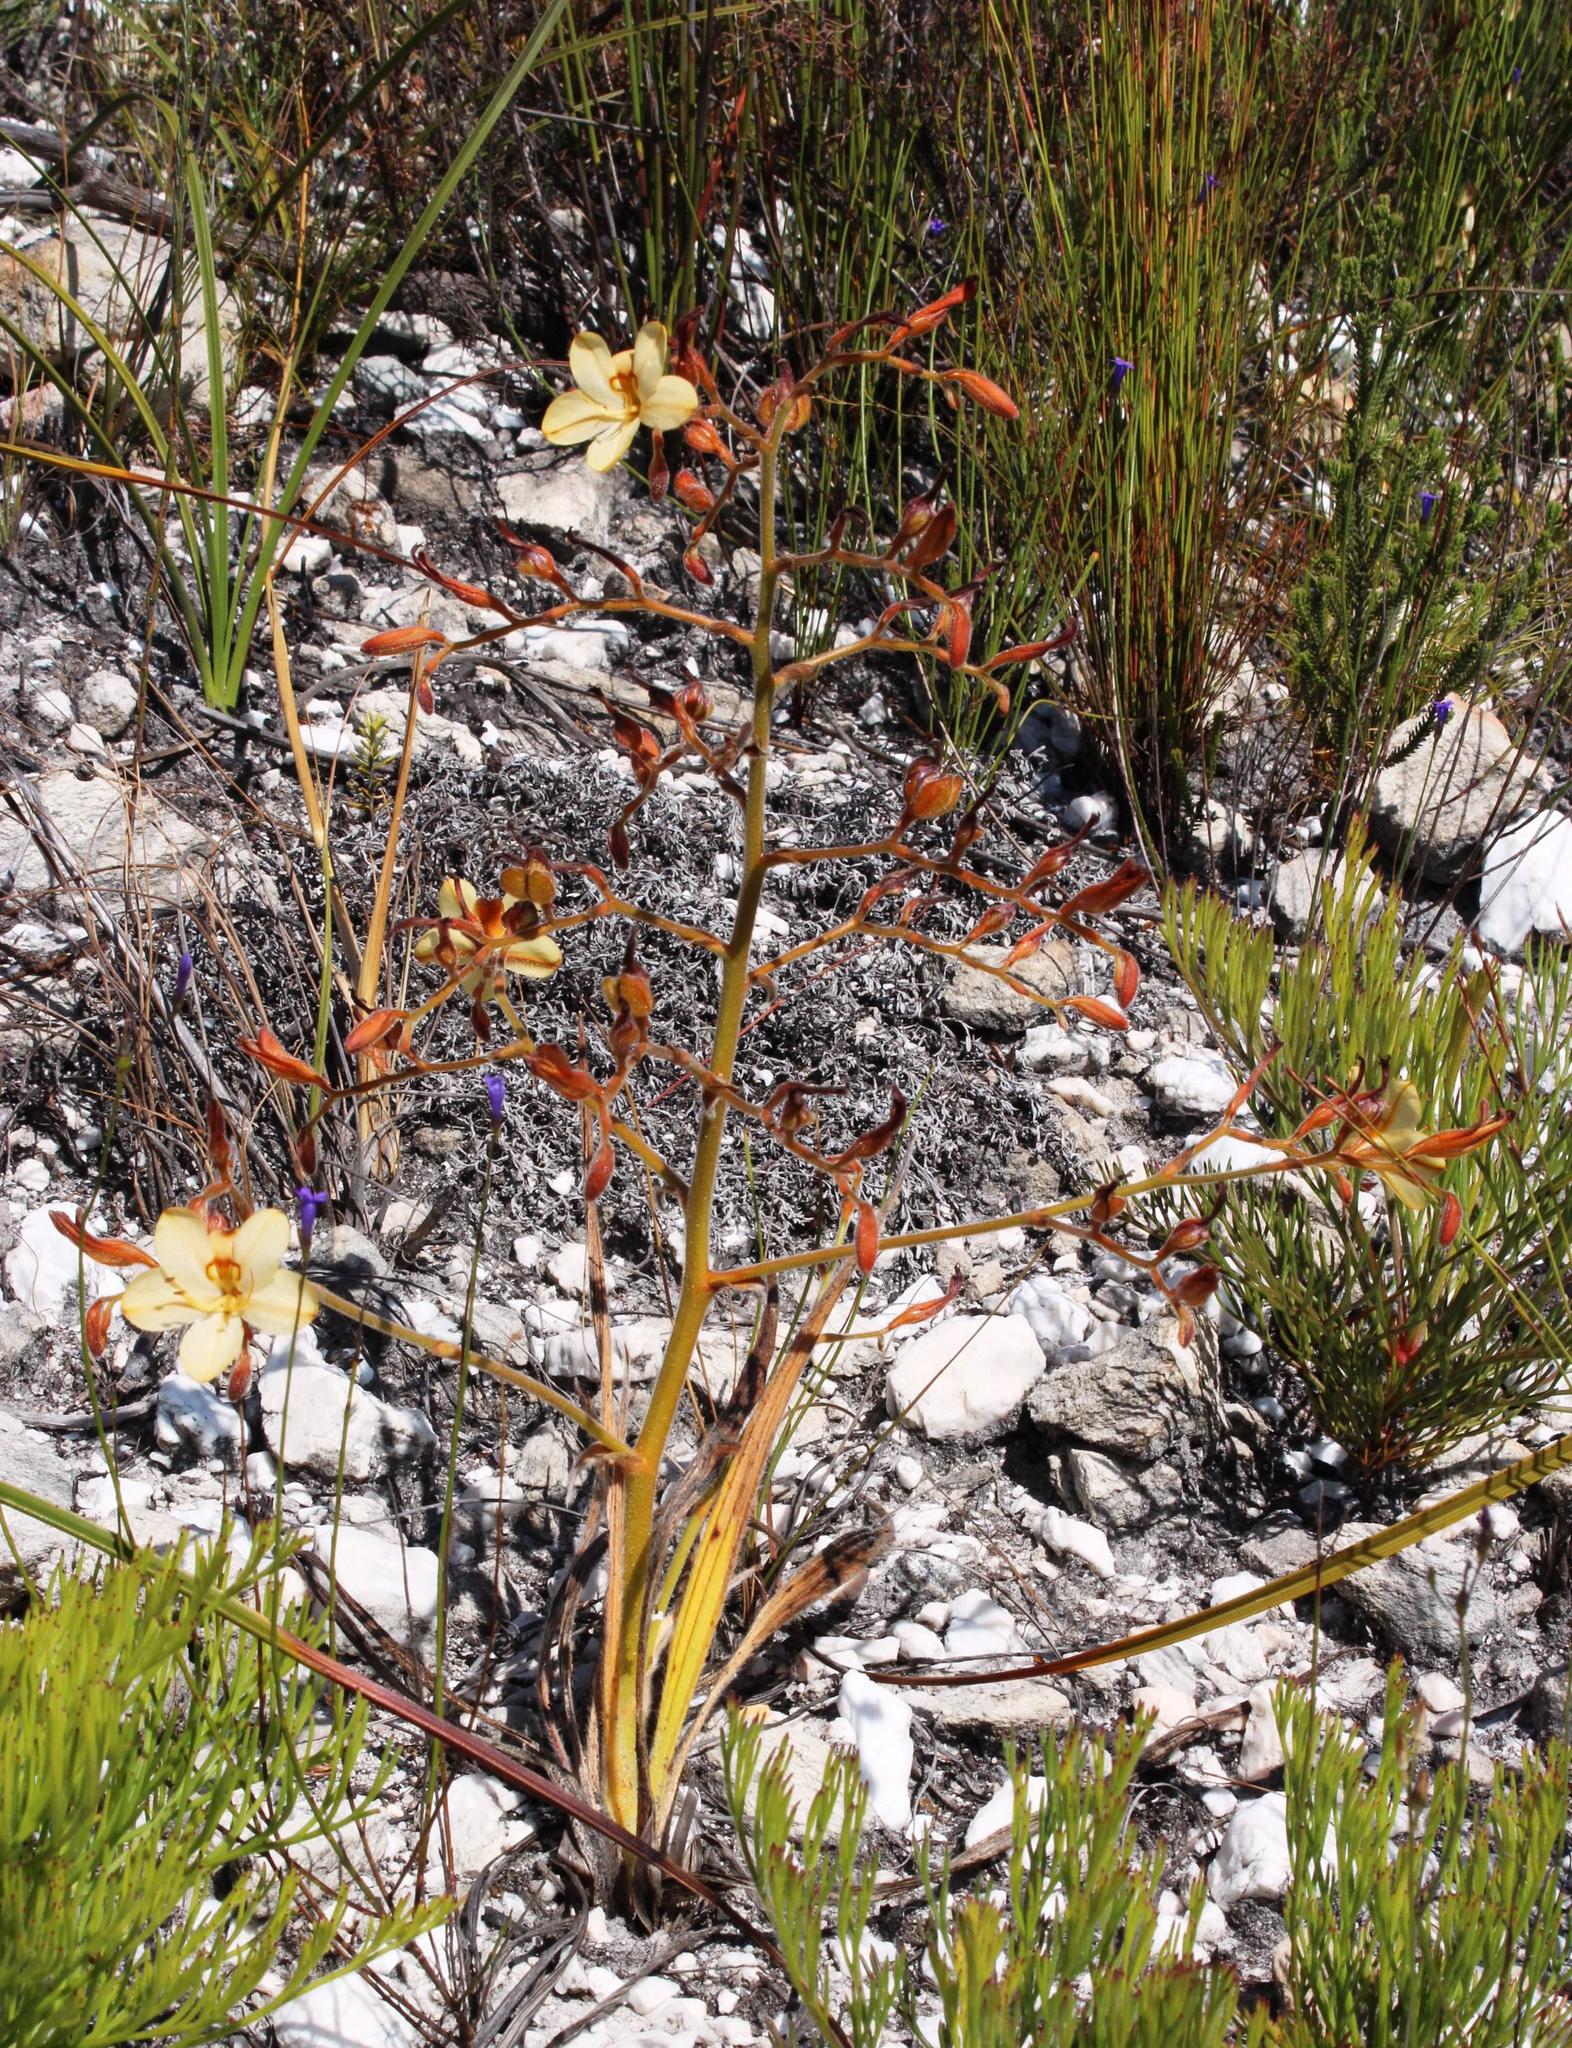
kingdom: Plantae
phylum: Tracheophyta
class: Liliopsida
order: Commelinales
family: Haemodoraceae
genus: Wachendorfia
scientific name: Wachendorfia paniculata
